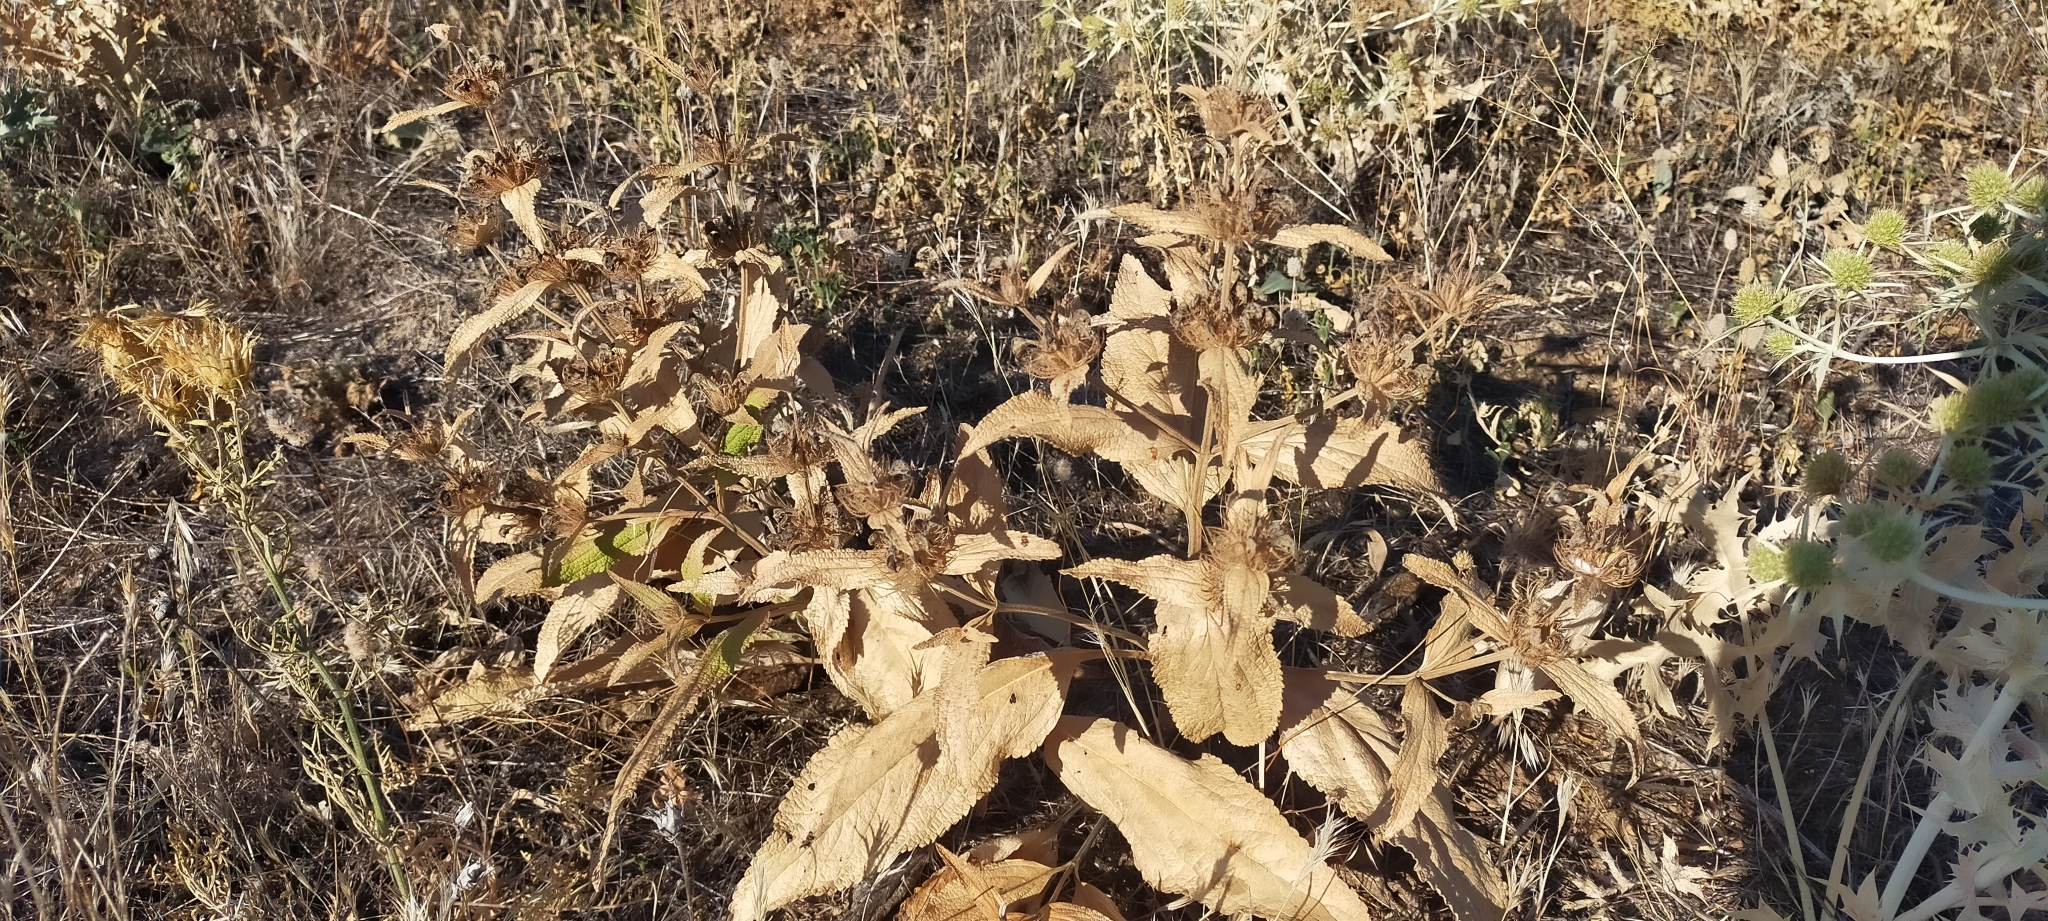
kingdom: Plantae
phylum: Tracheophyta
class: Magnoliopsida
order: Lamiales
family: Lamiaceae
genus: Phlomis
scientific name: Phlomis herba-venti
